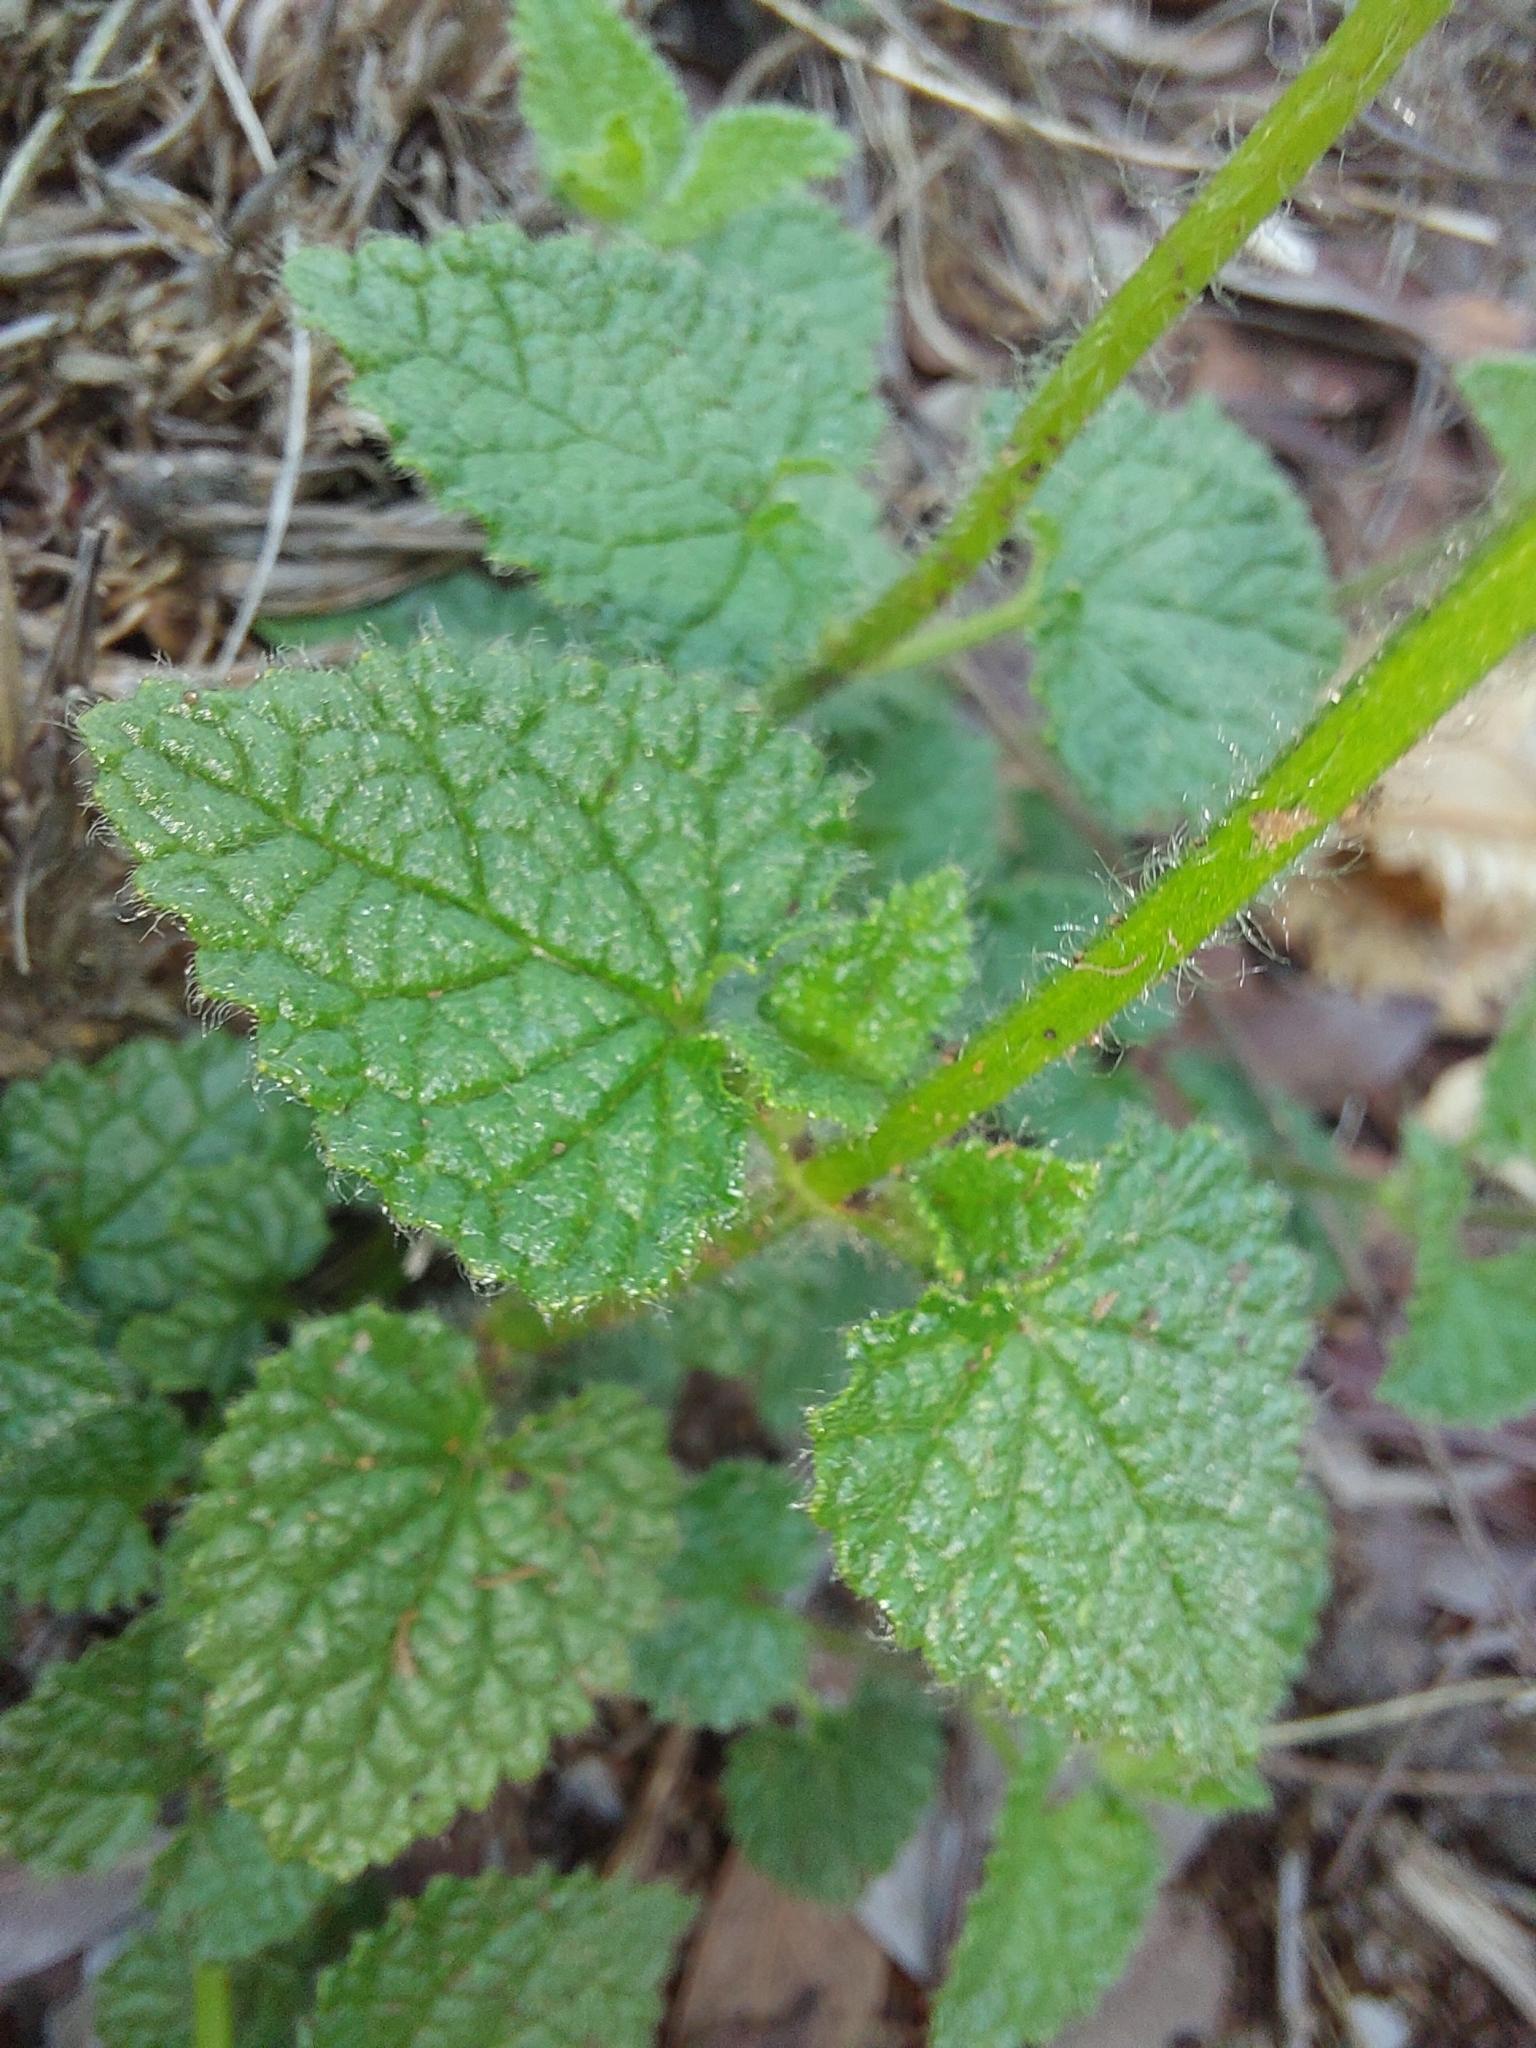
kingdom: Plantae
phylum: Tracheophyta
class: Magnoliopsida
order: Lamiales
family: Lamiaceae
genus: Stachys
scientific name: Stachys natalensis
